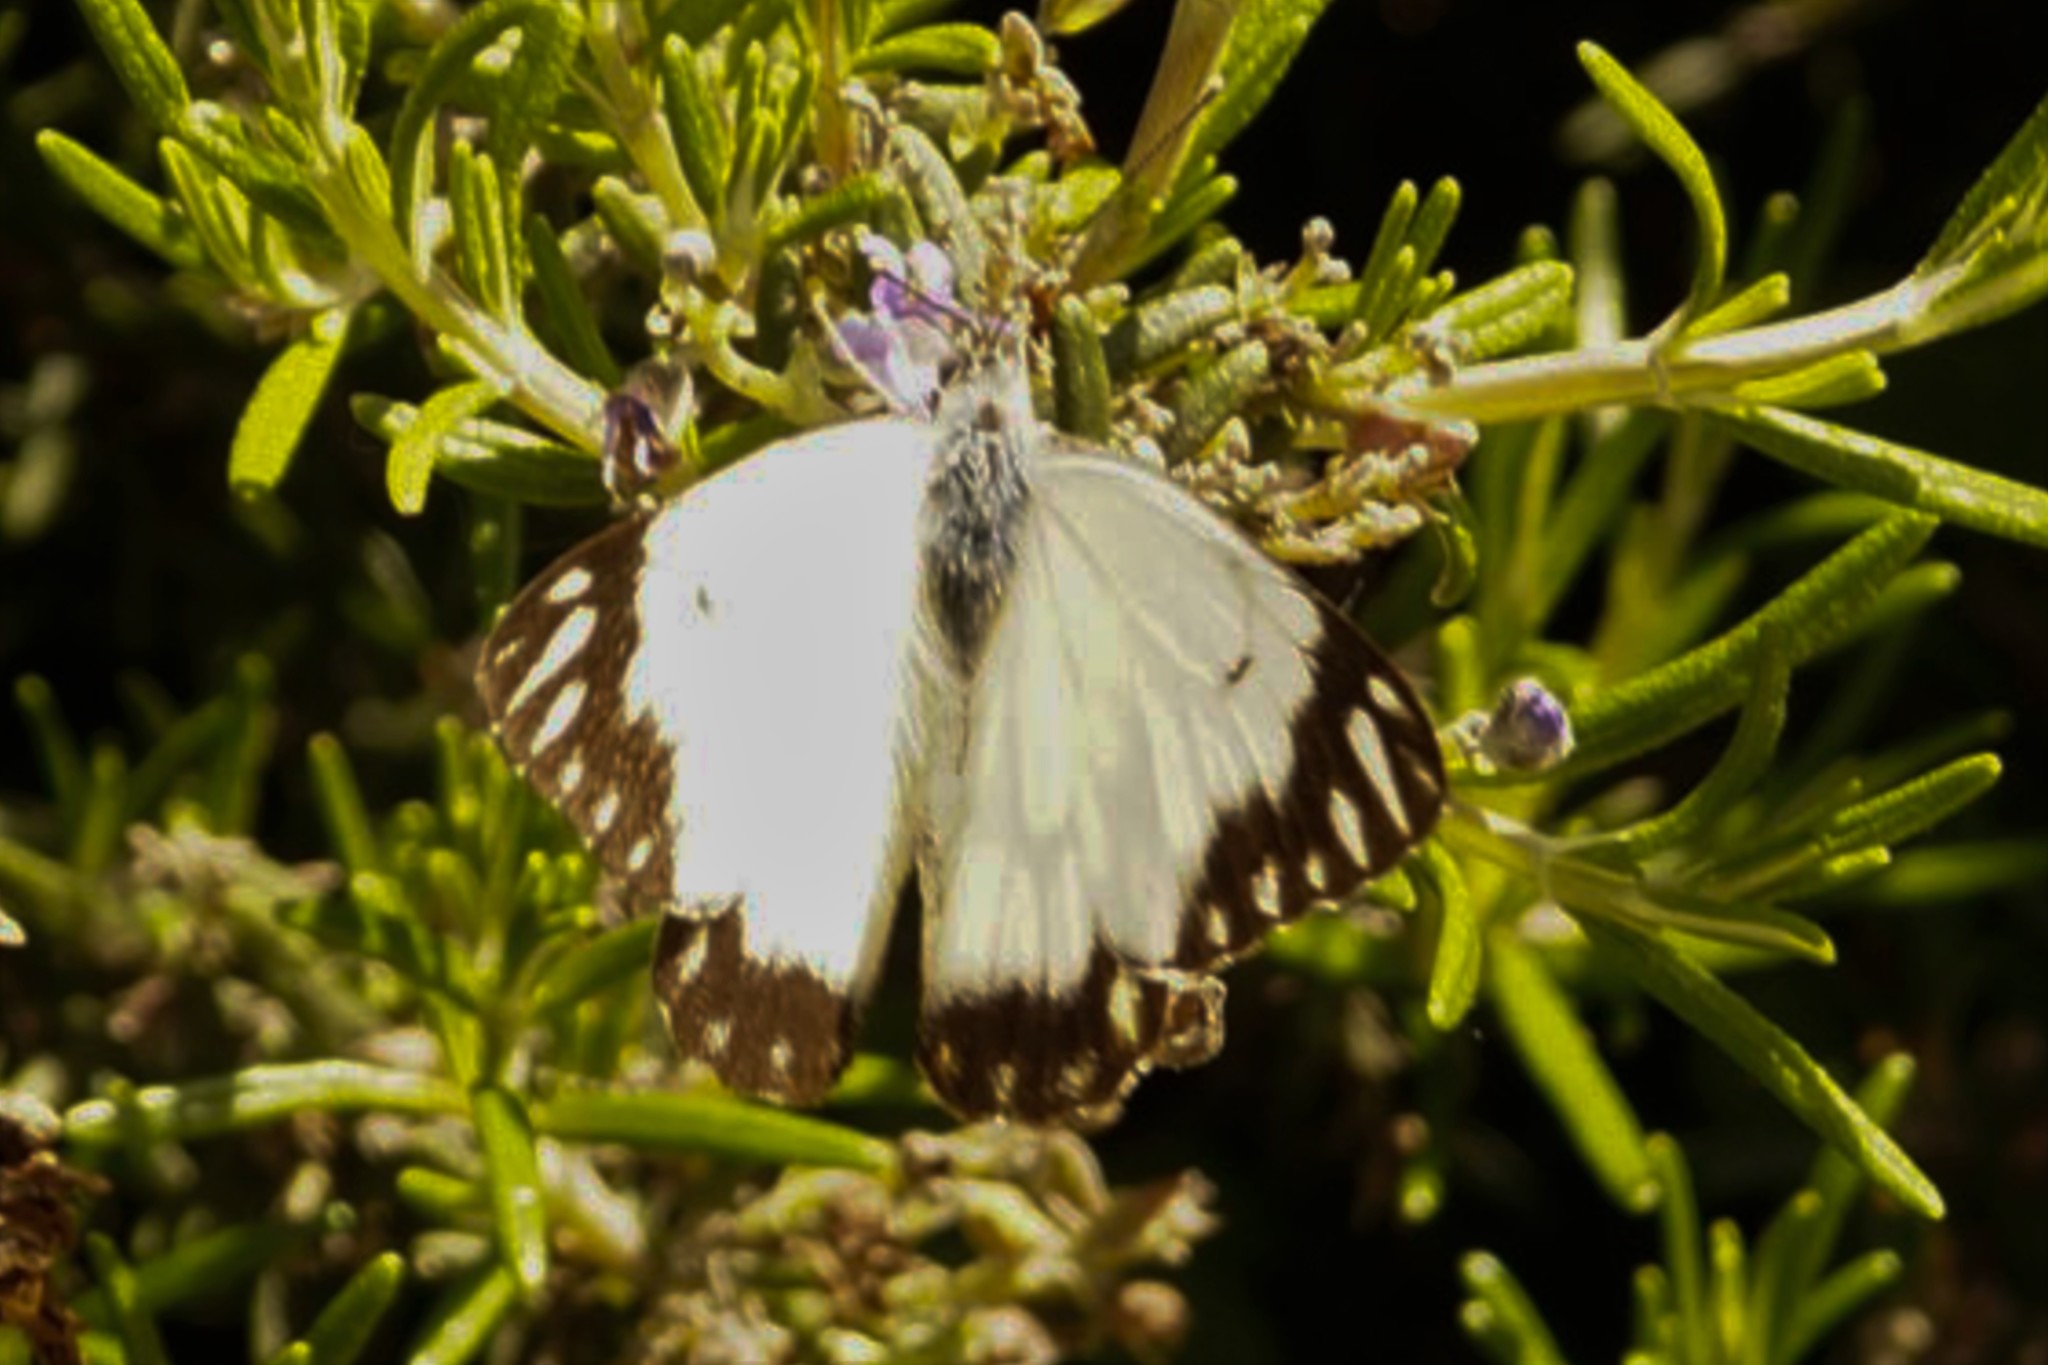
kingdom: Animalia
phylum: Arthropoda
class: Insecta
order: Lepidoptera
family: Pieridae
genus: Belenois
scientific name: Belenois java
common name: Caper white
